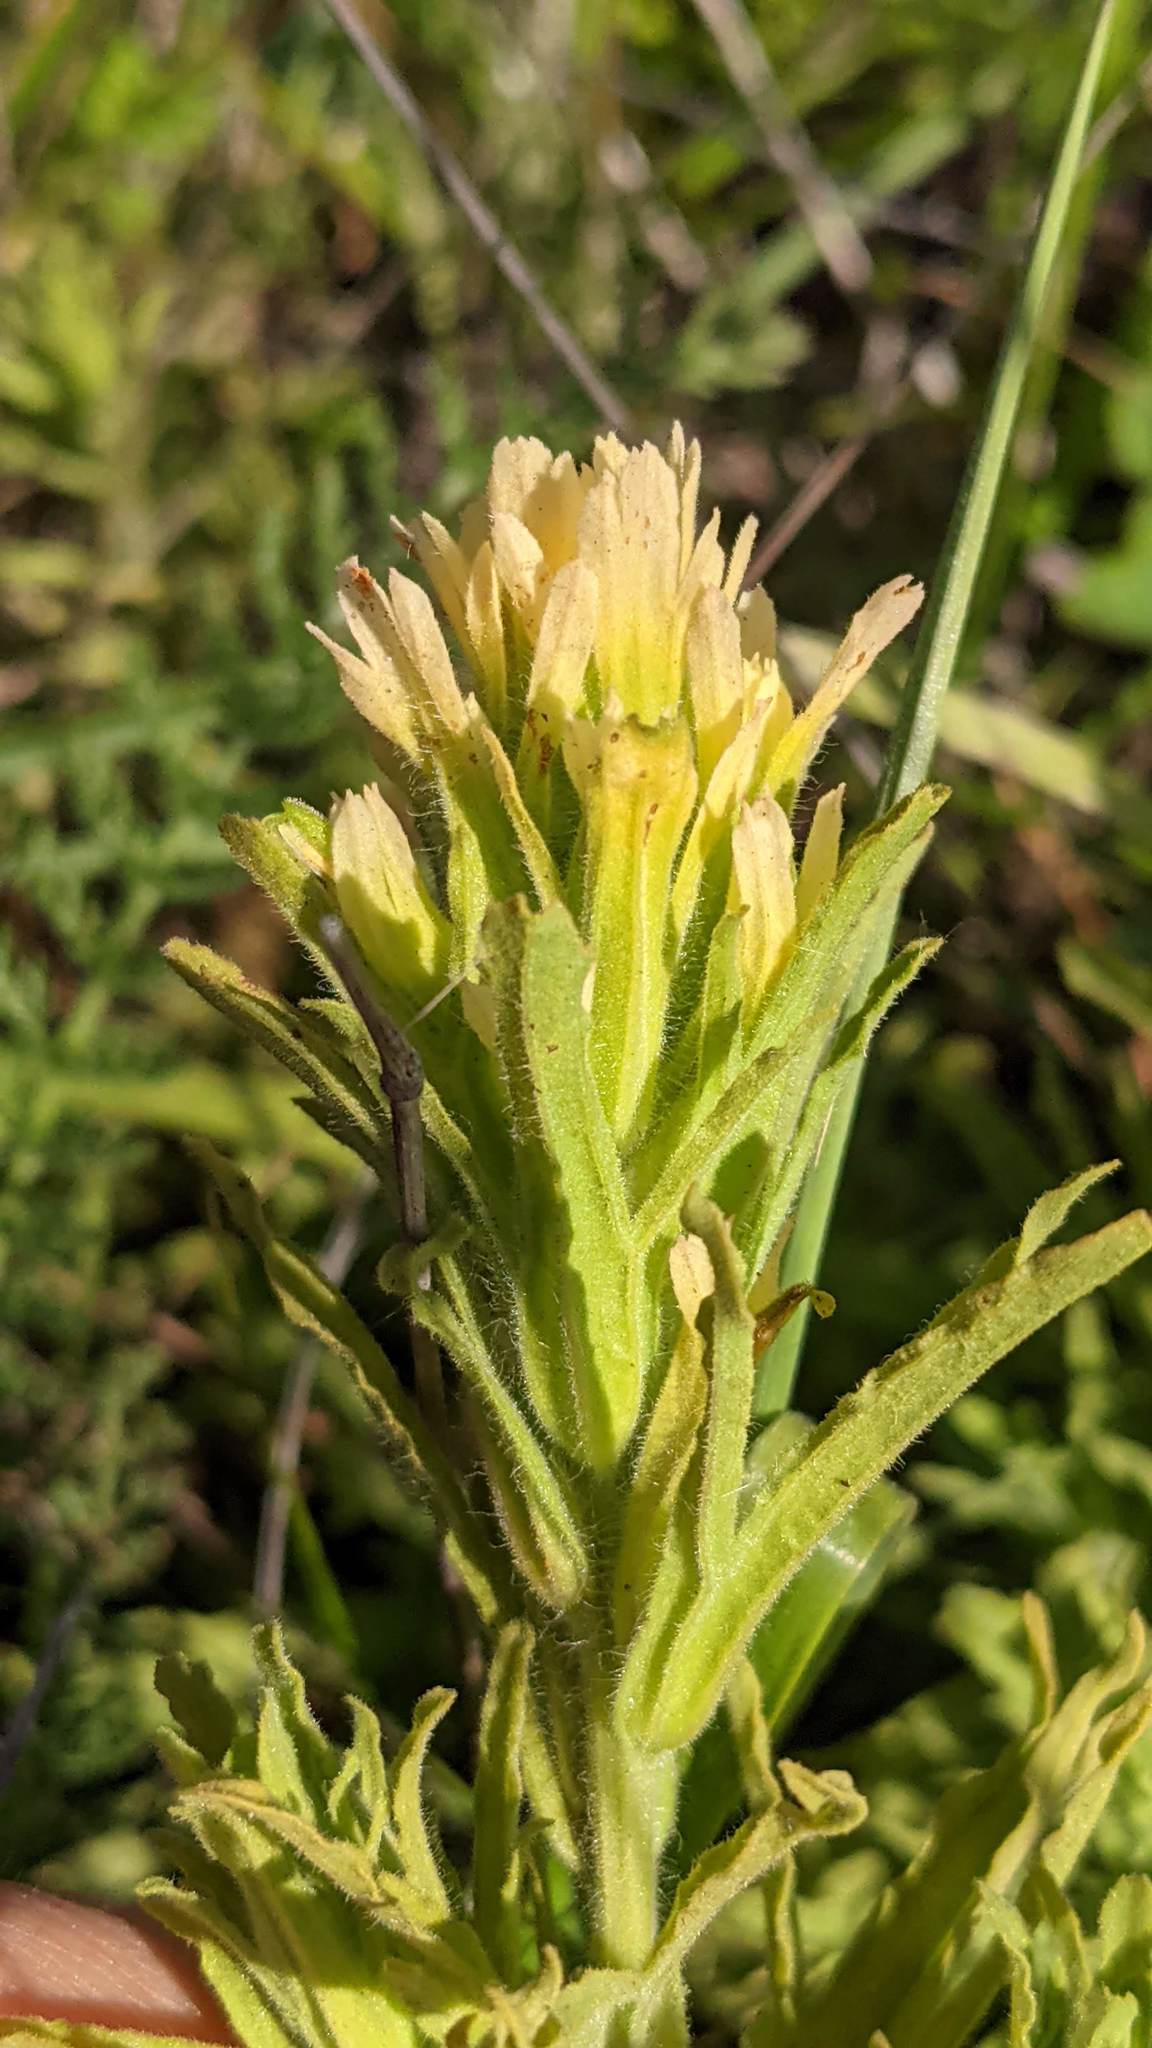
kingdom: Plantae
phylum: Tracheophyta
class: Magnoliopsida
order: Lamiales
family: Orobanchaceae
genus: Castilleja
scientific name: Castilleja wightii
